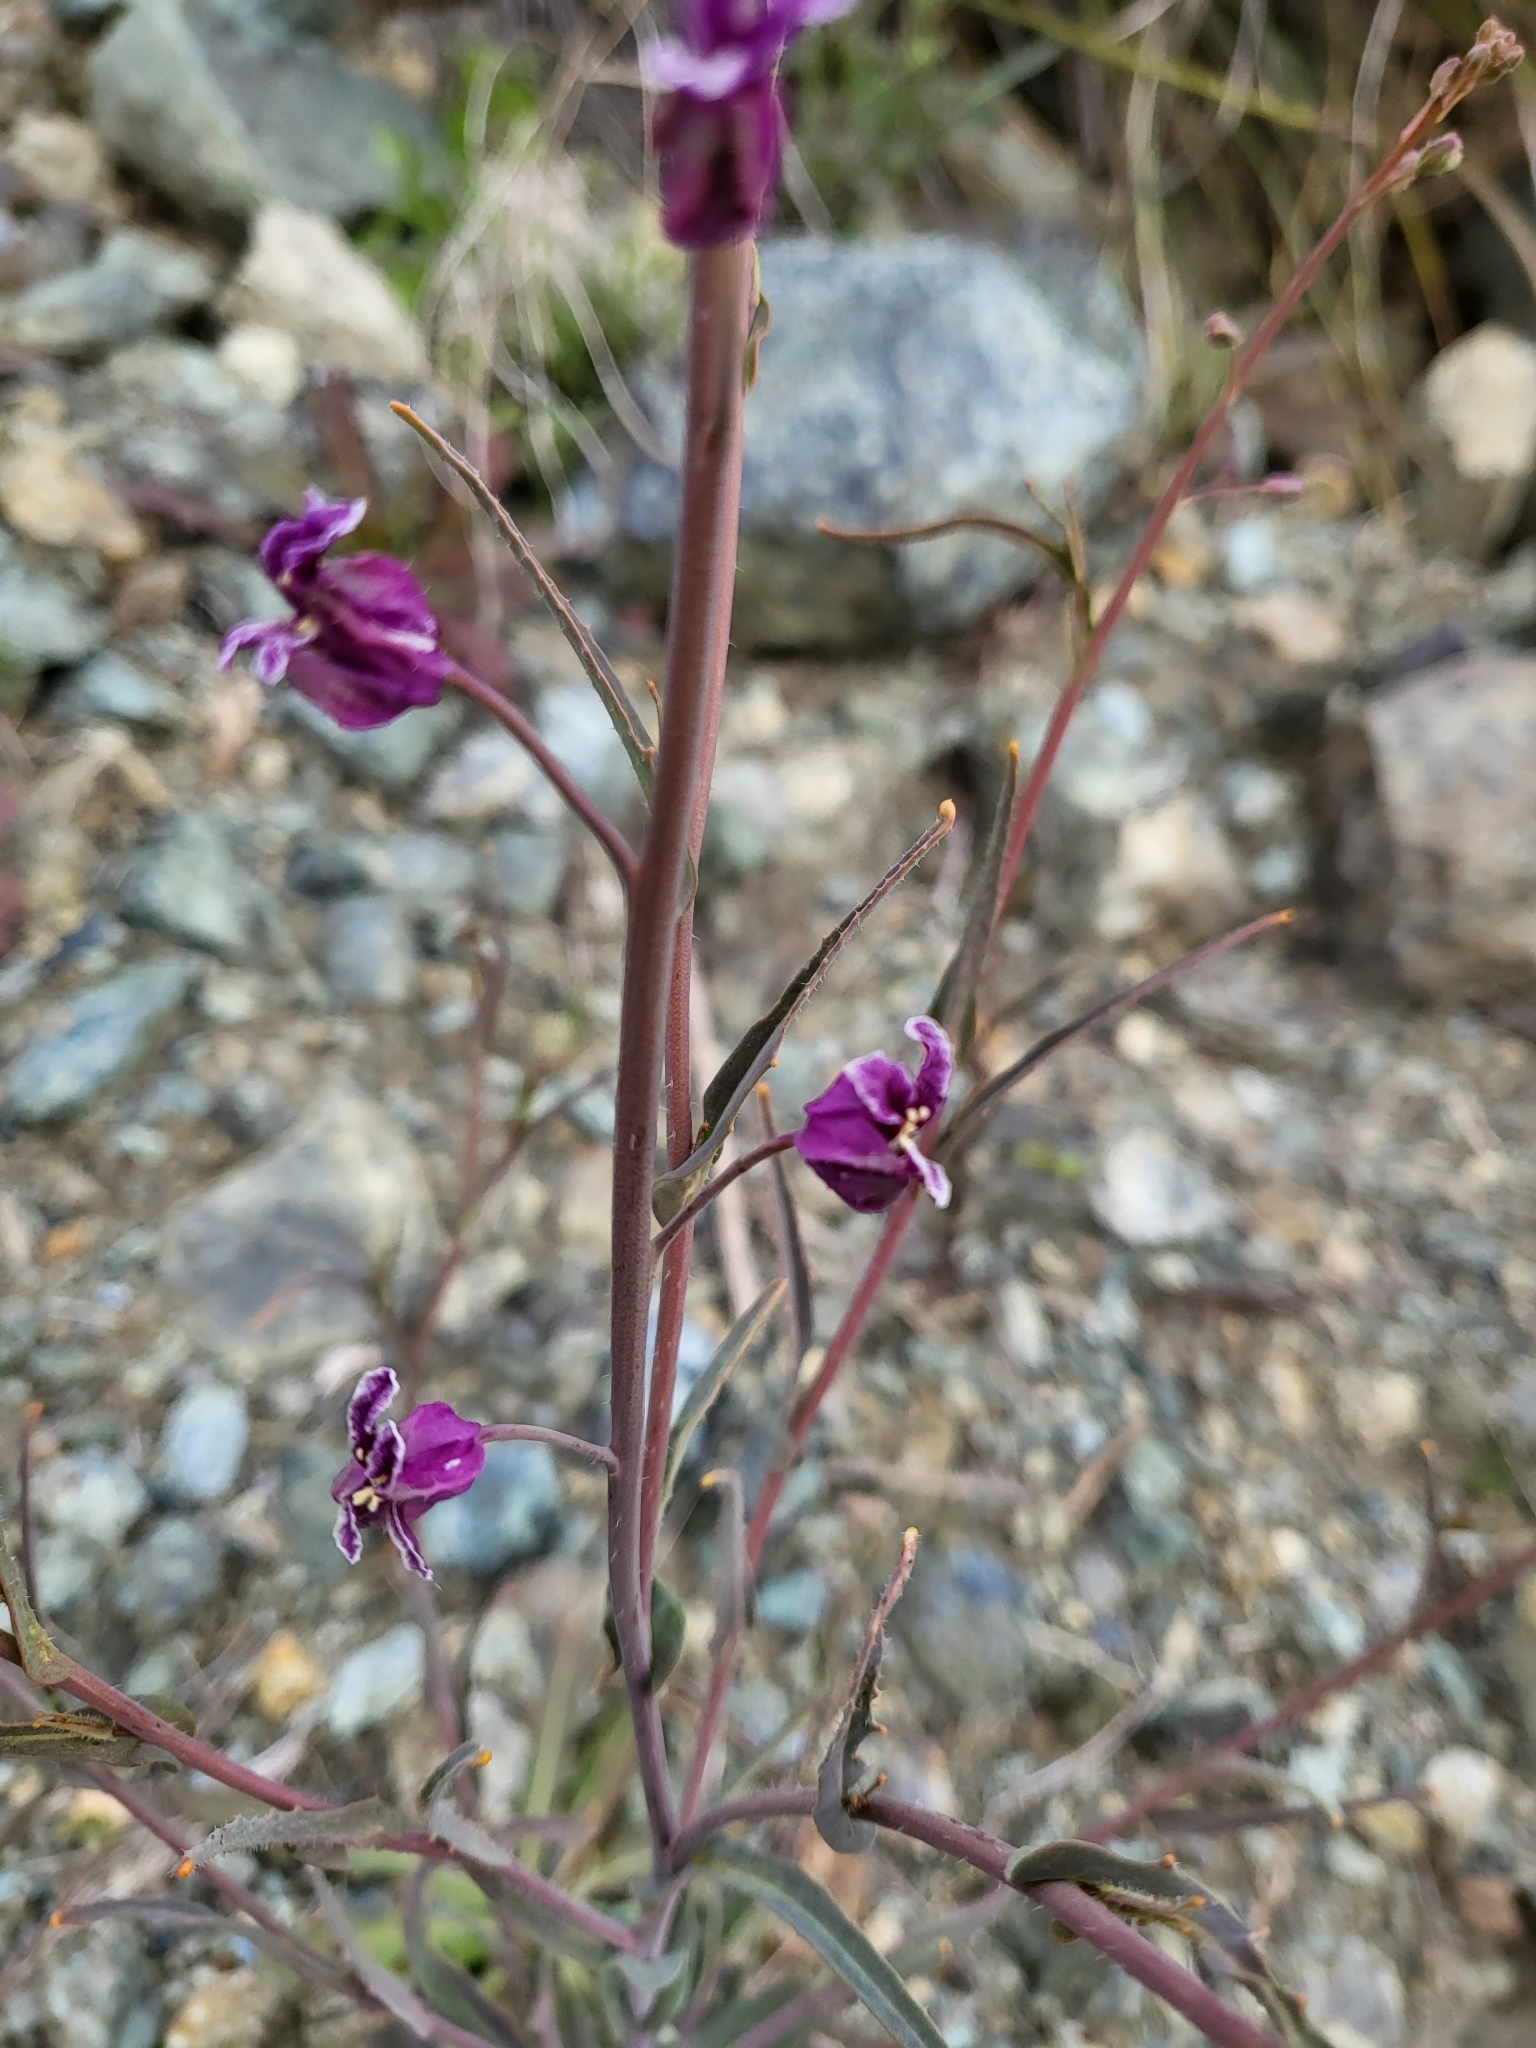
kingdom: Plantae
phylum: Tracheophyta
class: Magnoliopsida
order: Brassicales
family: Brassicaceae
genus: Streptanthus
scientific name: Streptanthus glandulosus
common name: Jewel-flower
